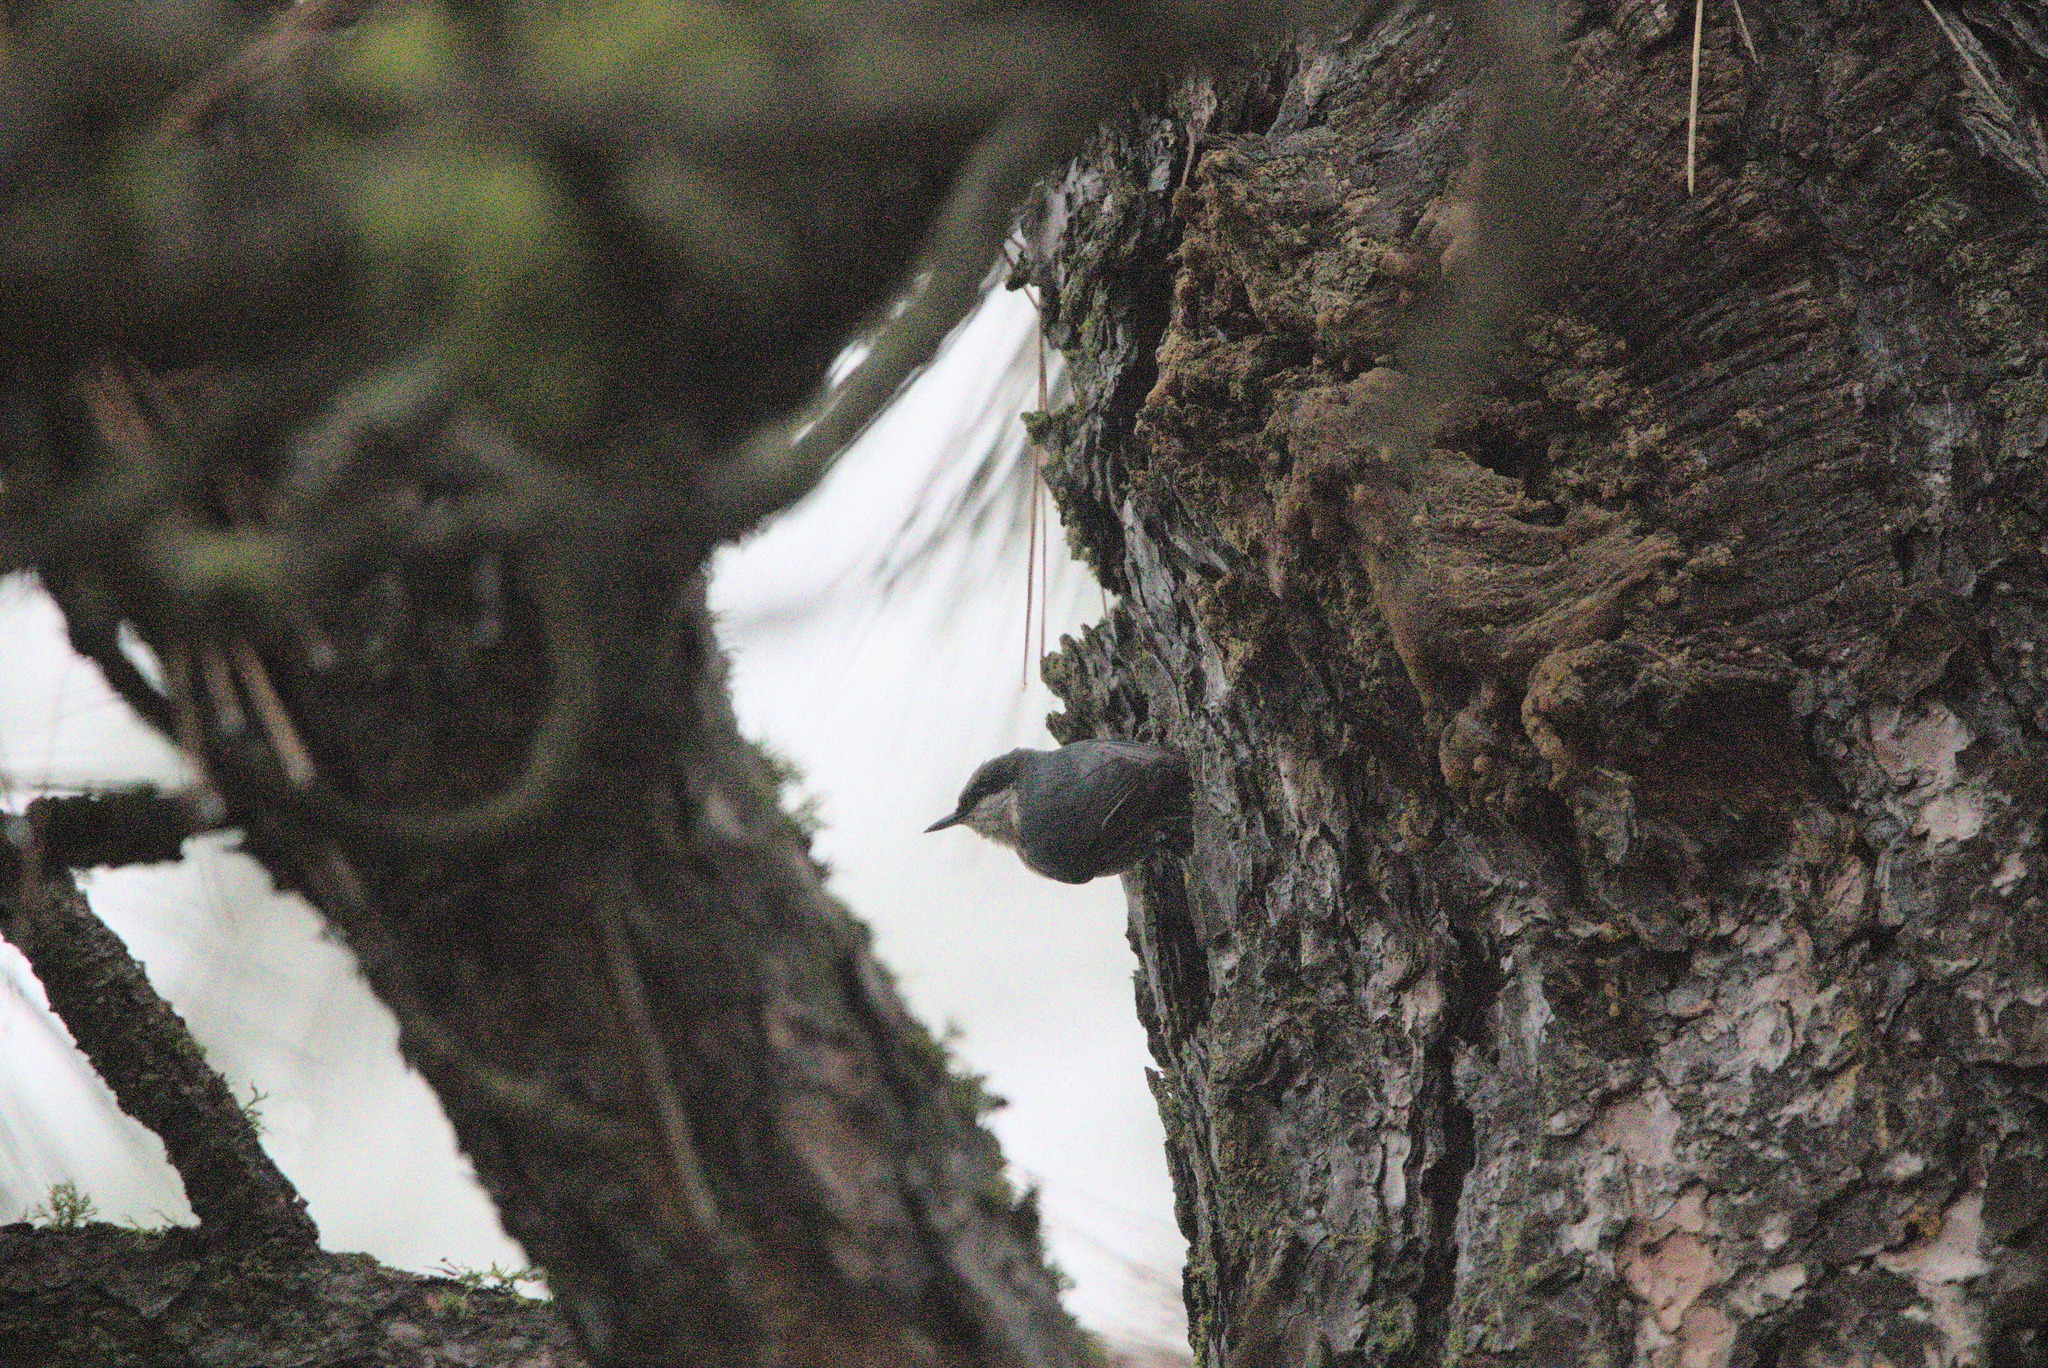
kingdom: Animalia
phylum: Chordata
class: Aves
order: Passeriformes
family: Sittidae
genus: Sitta
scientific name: Sitta pygmaea
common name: Pygmy nuthatch
